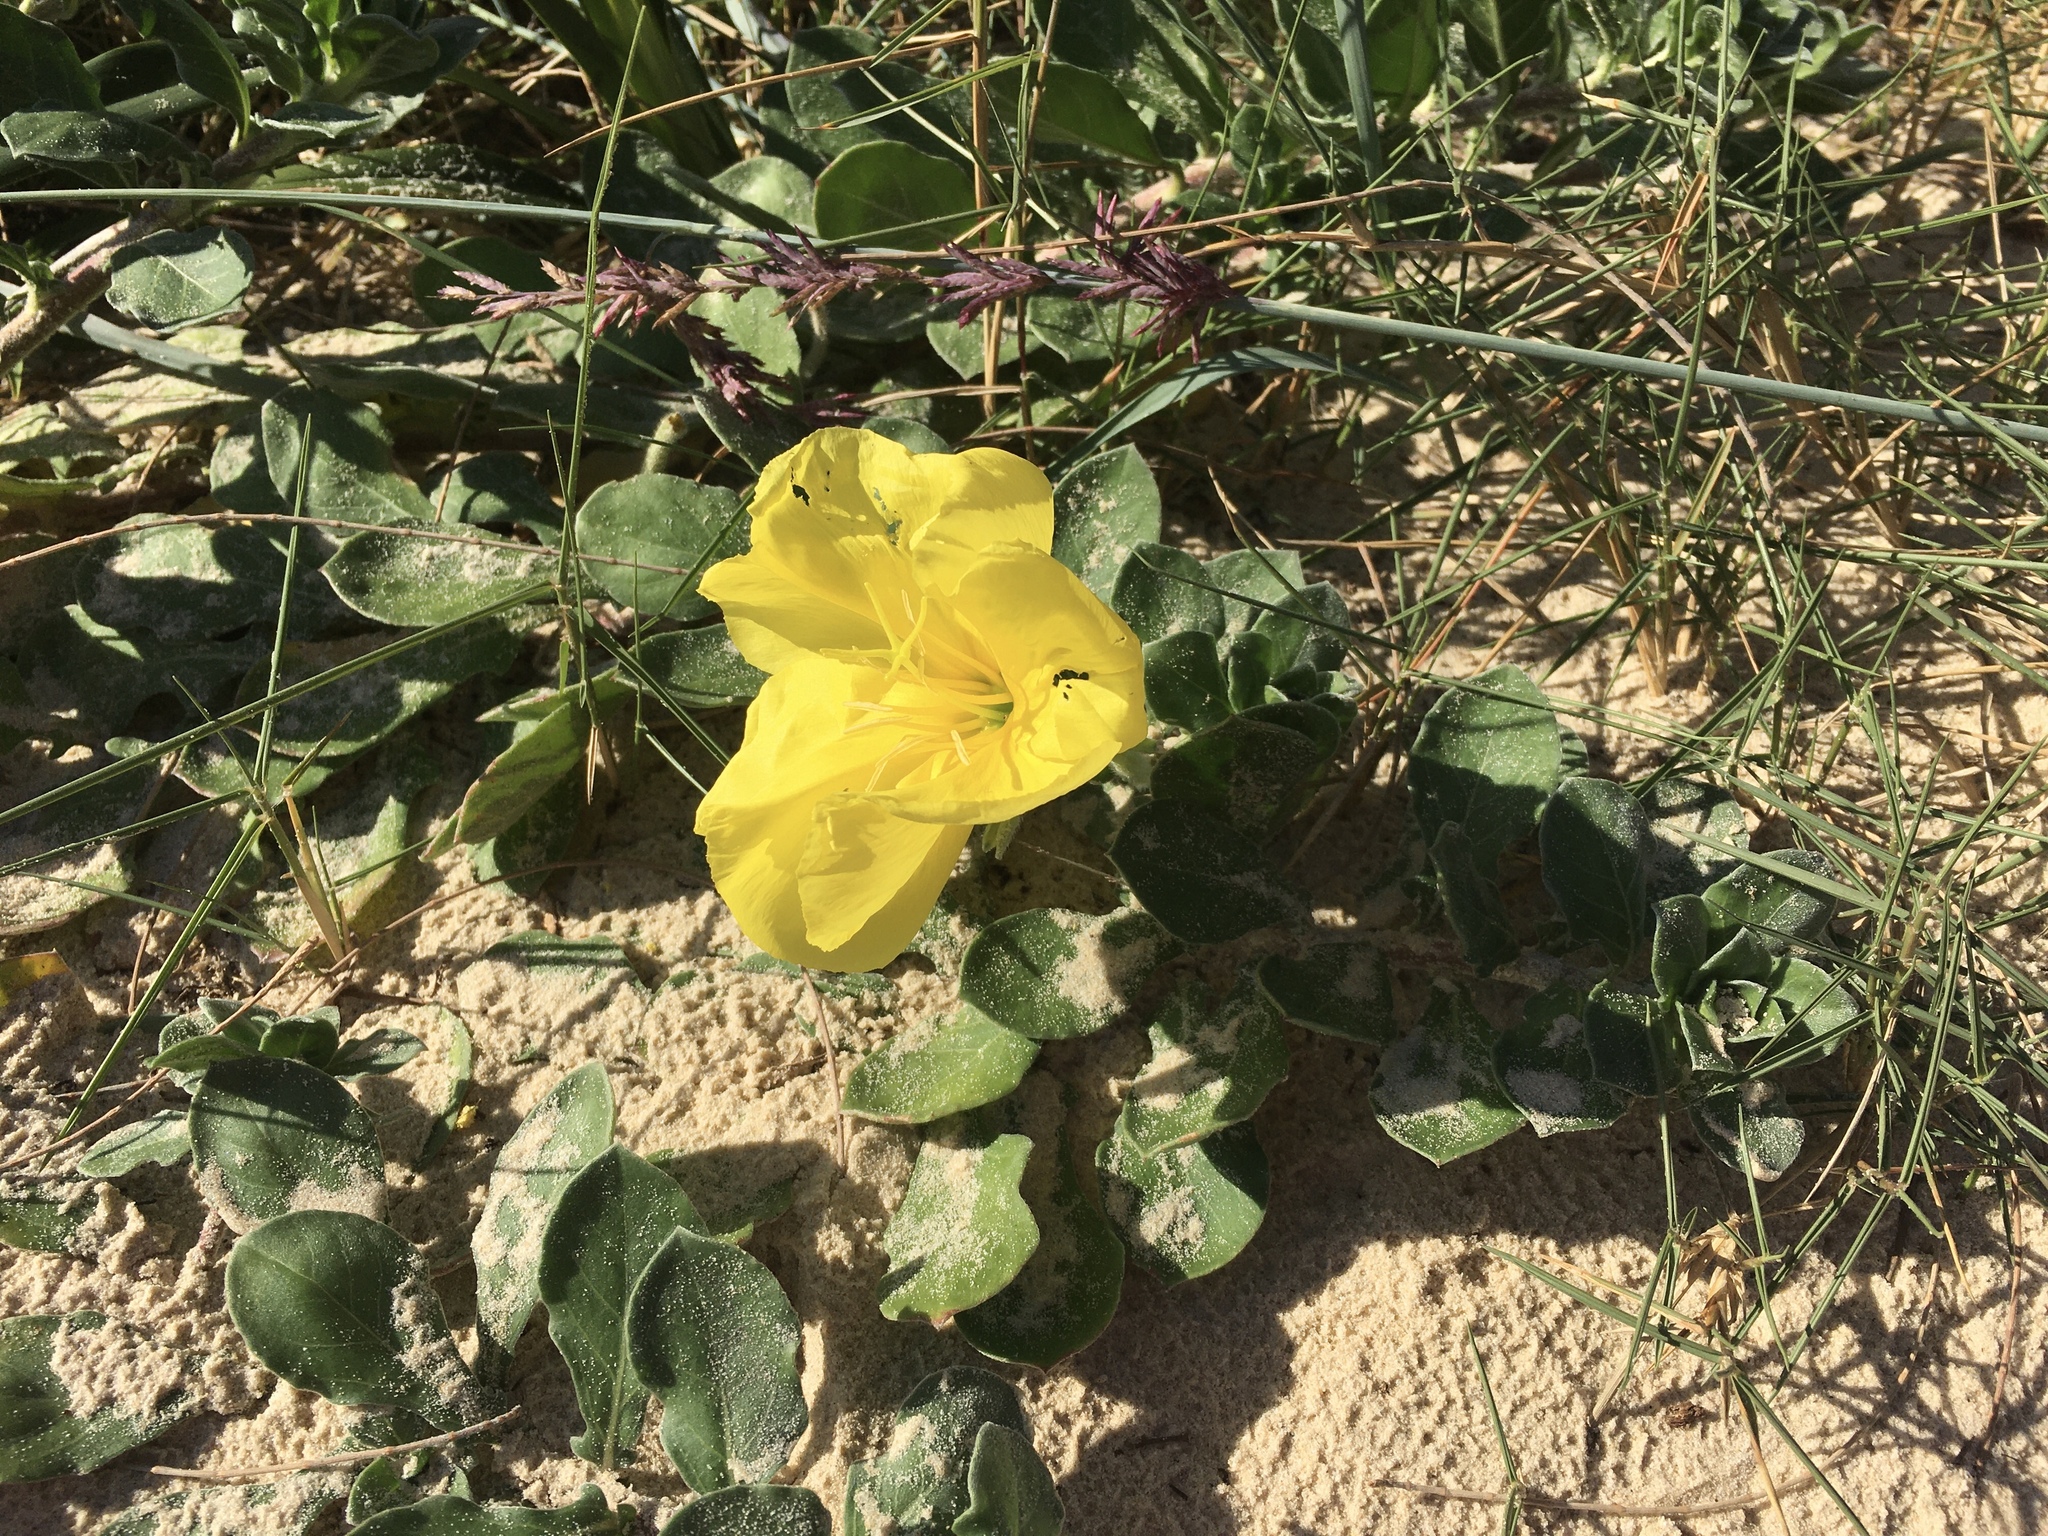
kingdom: Plantae
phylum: Tracheophyta
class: Magnoliopsida
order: Myrtales
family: Onagraceae
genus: Oenothera
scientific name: Oenothera drummondii
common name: Beach evening-primrose
